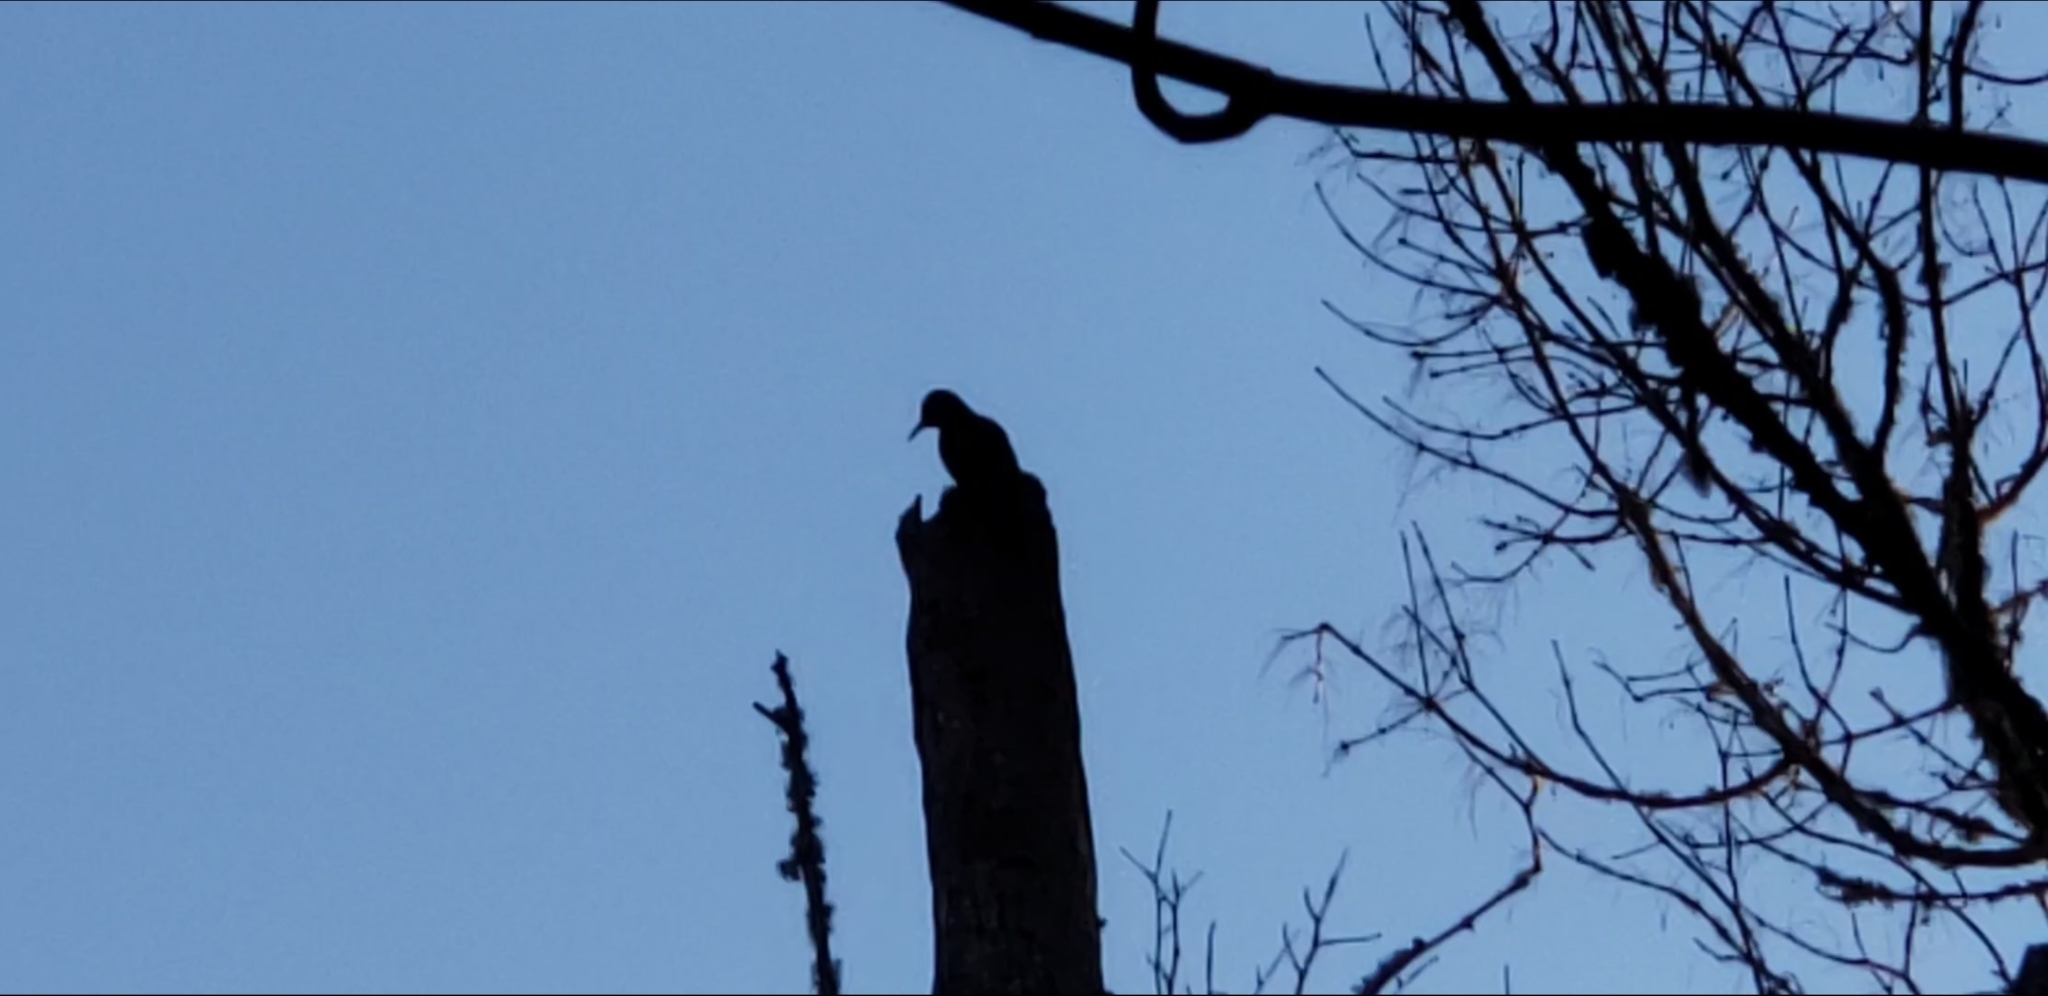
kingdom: Animalia
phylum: Chordata
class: Aves
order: Piciformes
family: Picidae
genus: Colaptes
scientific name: Colaptes auratus
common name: Northern flicker
